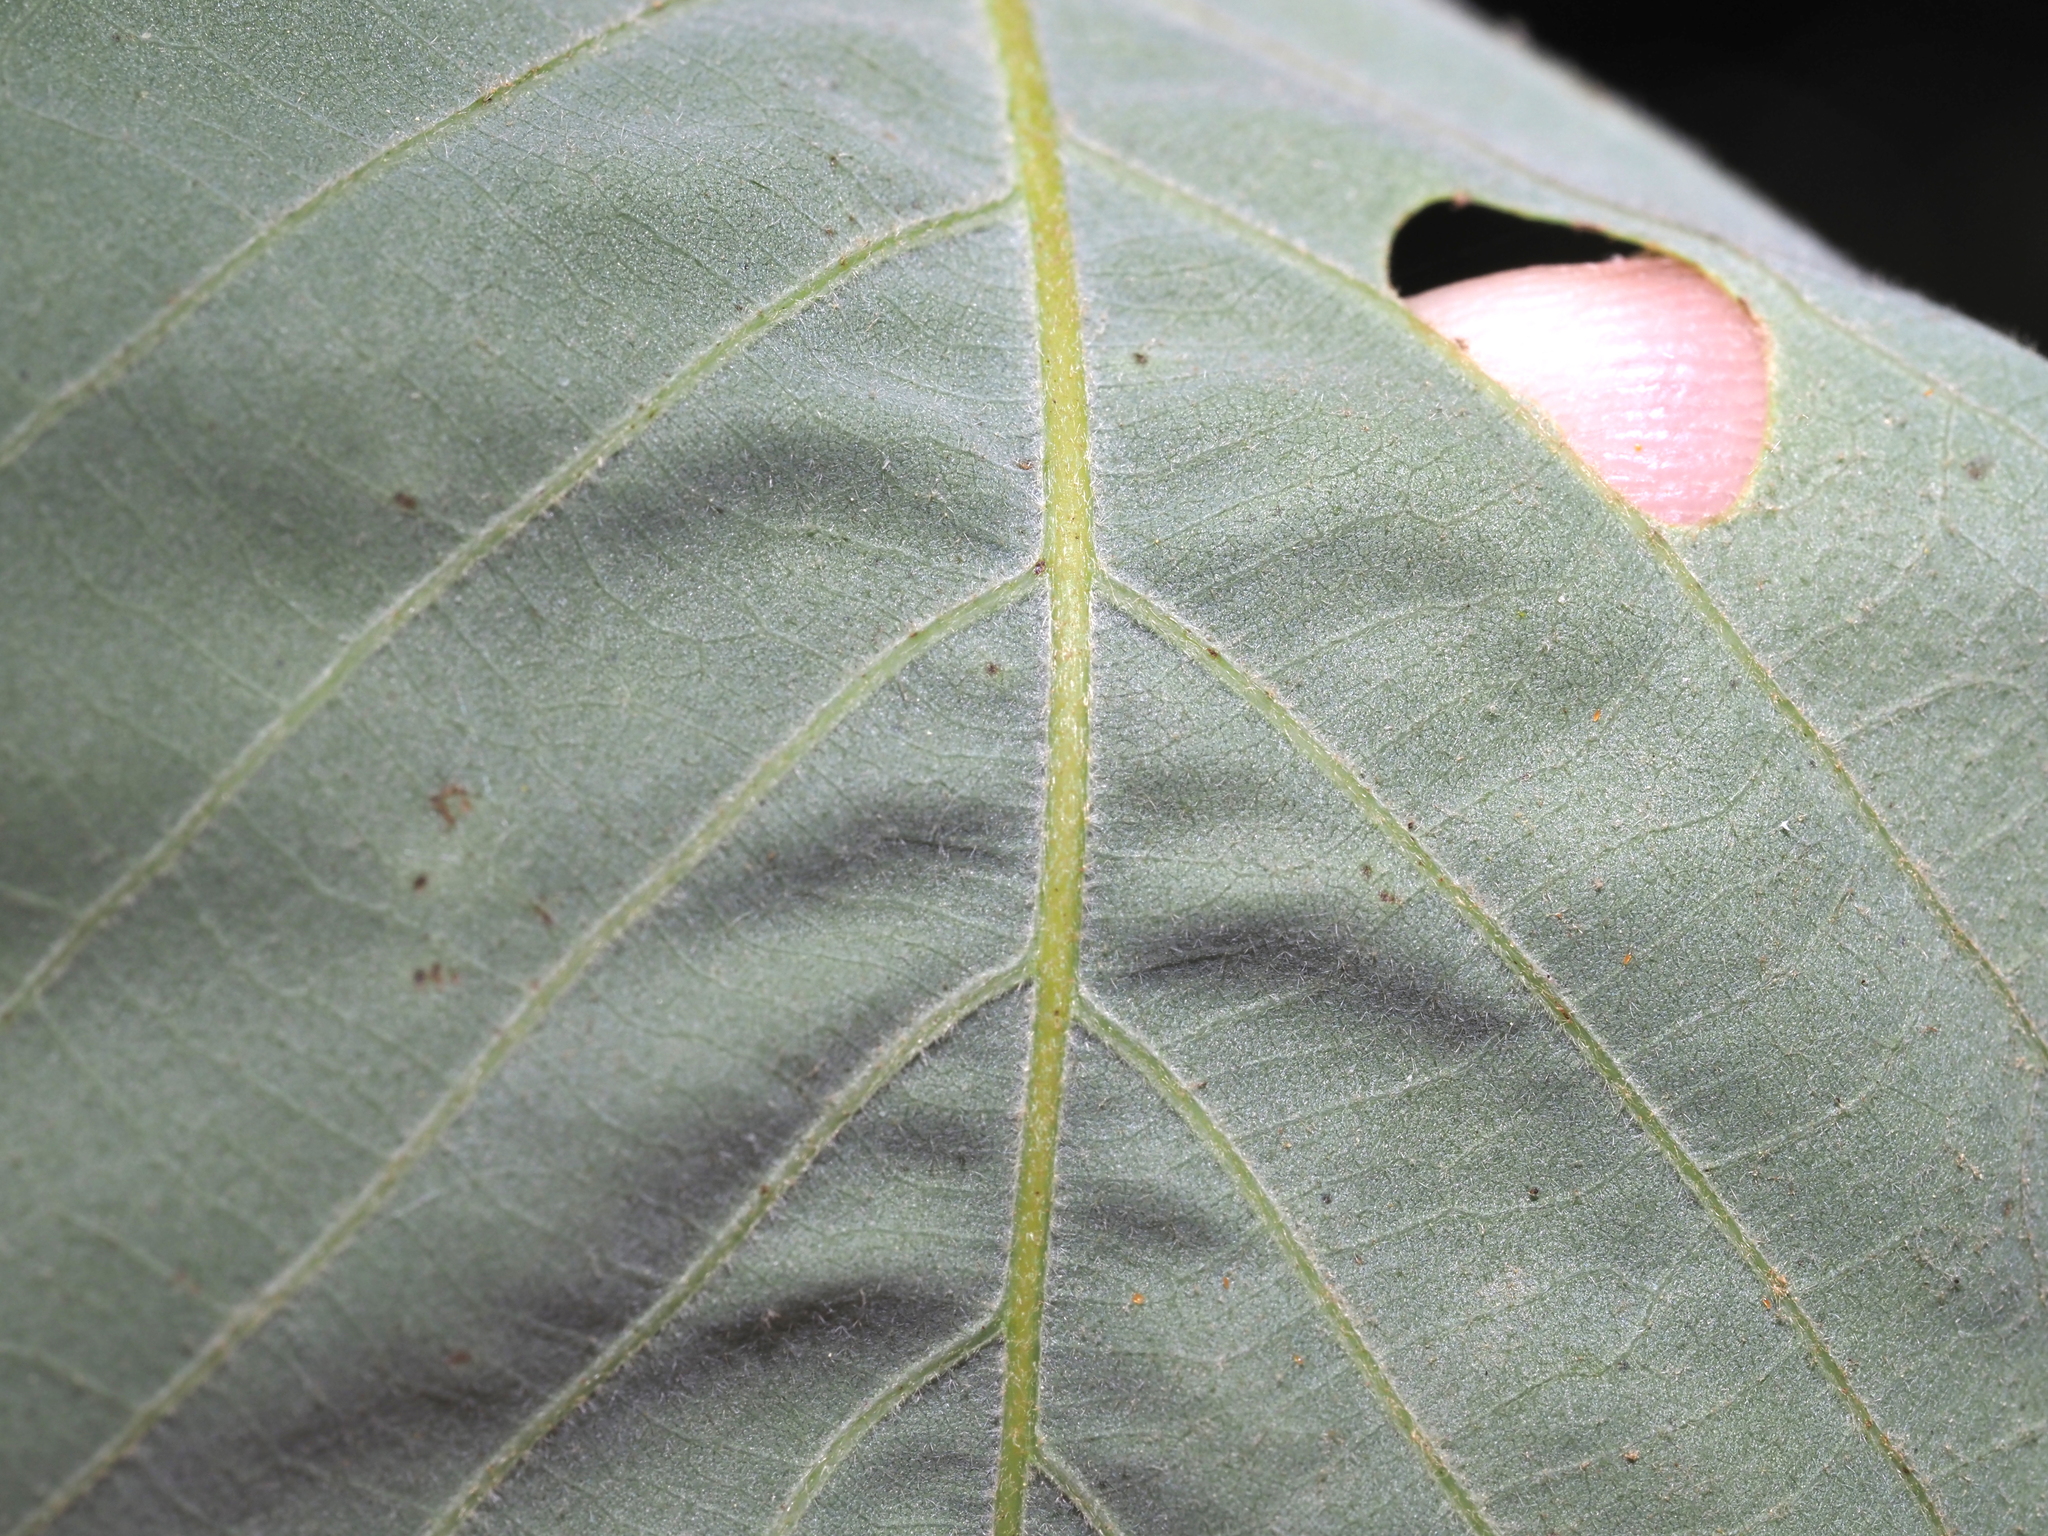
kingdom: Plantae
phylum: Tracheophyta
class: Magnoliopsida
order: Fagales
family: Fagaceae
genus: Quercus
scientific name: Quercus muehlenbergii
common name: Chinkapin oak
